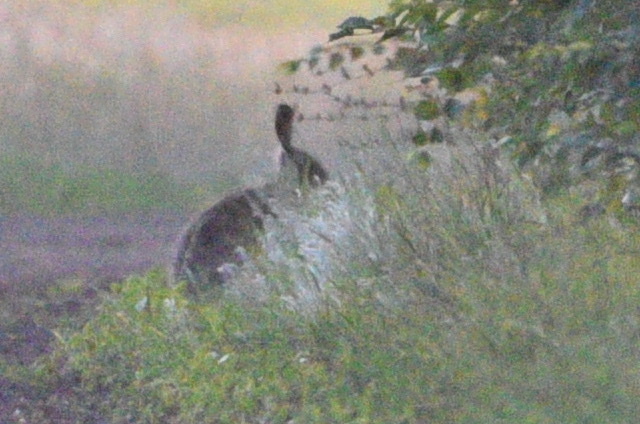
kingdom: Animalia
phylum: Chordata
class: Mammalia
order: Lagomorpha
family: Leporidae
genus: Lepus
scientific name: Lepus europaeus
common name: European hare
